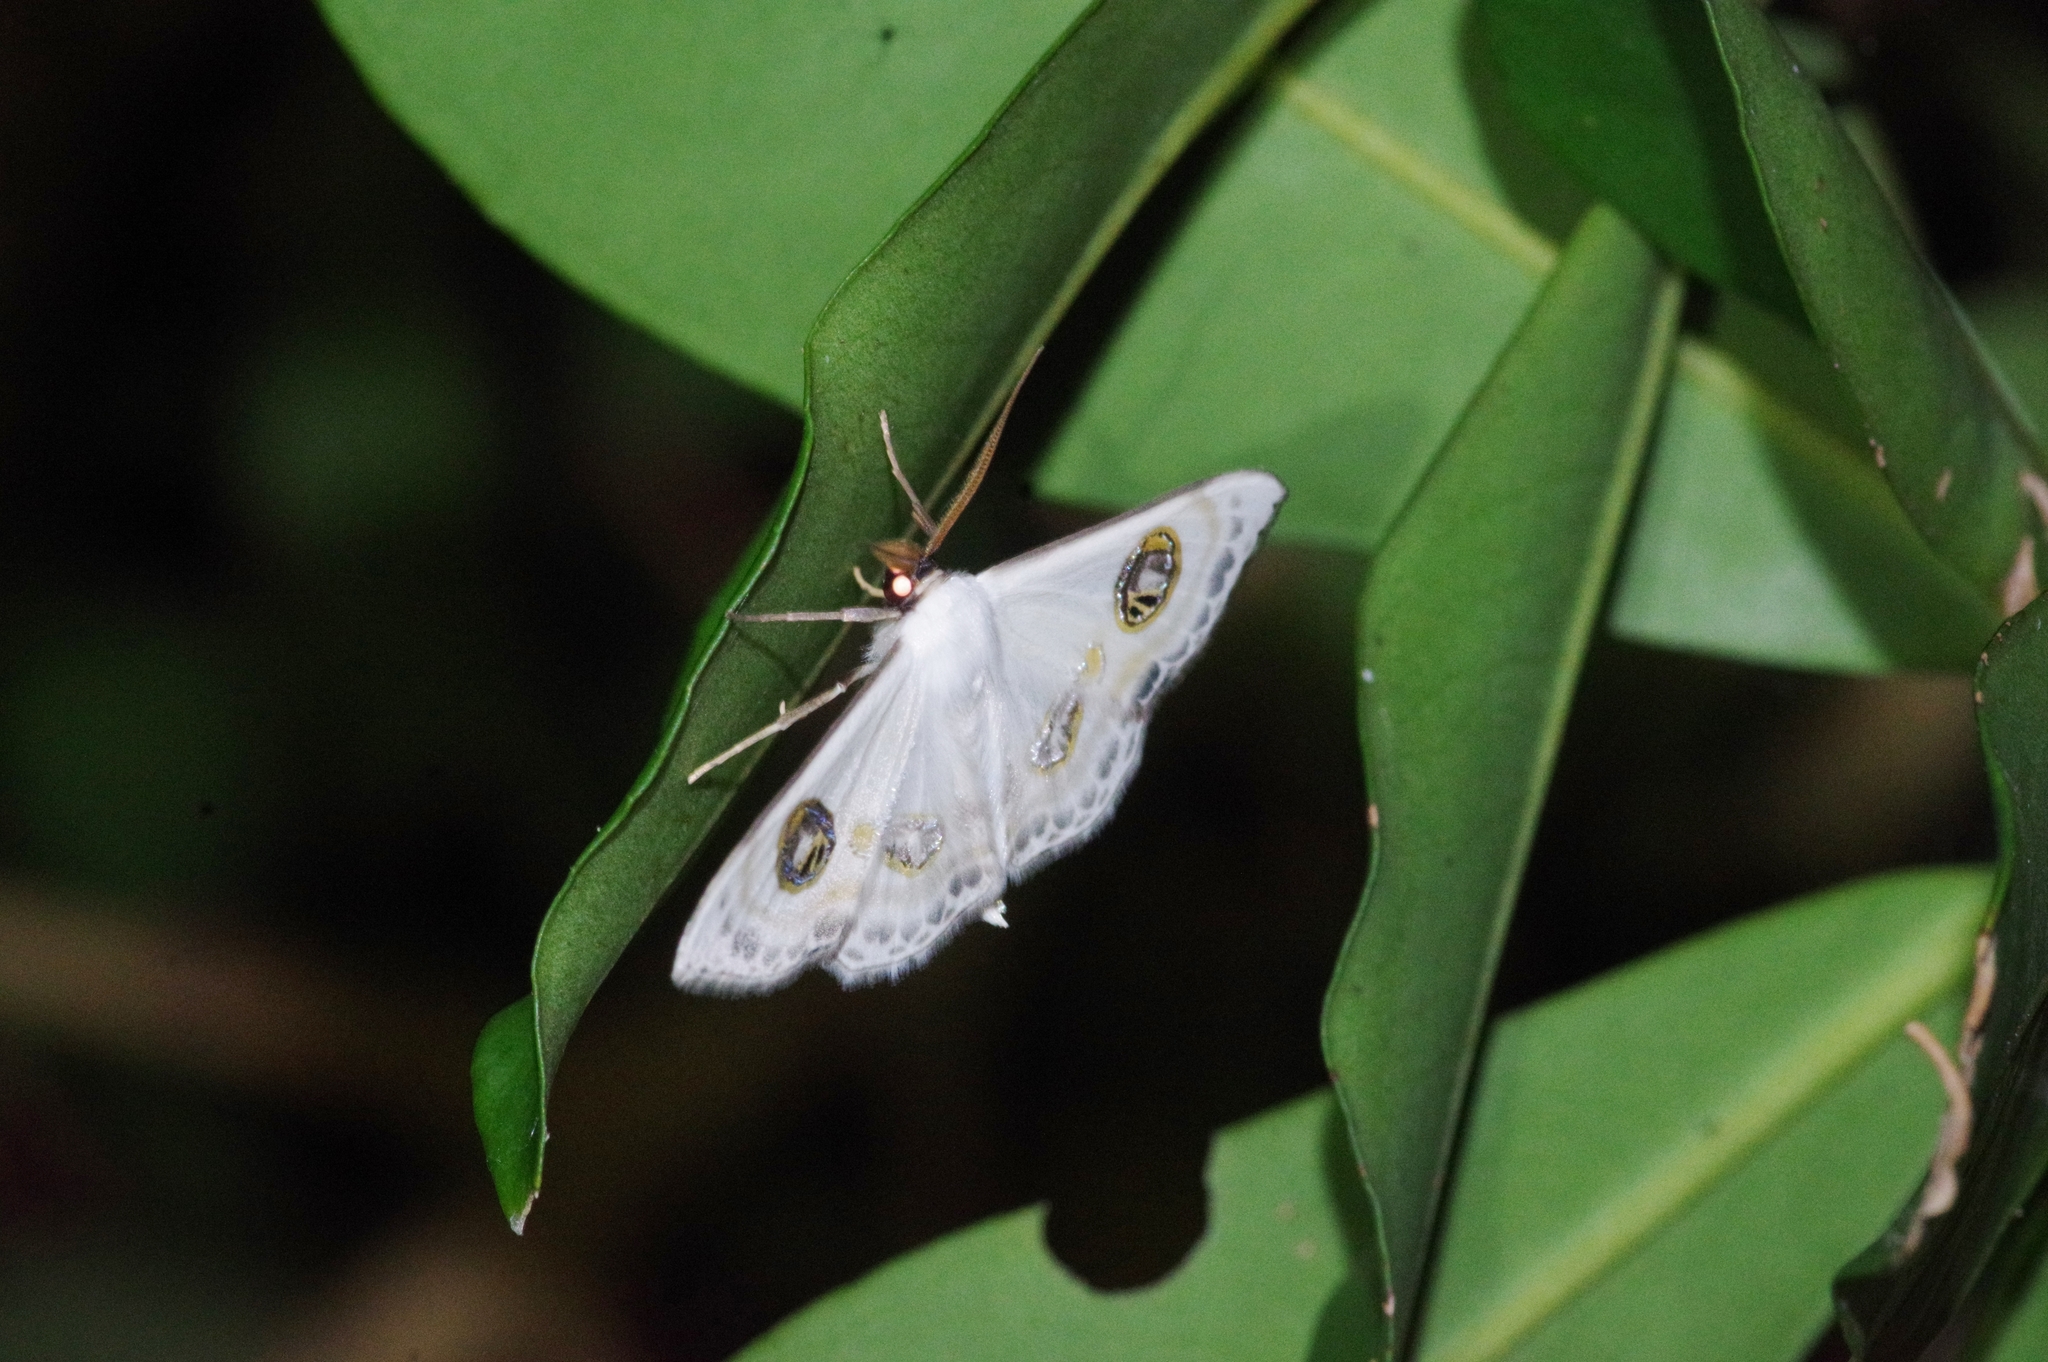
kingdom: Animalia
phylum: Arthropoda
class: Insecta
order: Lepidoptera
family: Geometridae
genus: Problepsis
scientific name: Problepsis albidior
